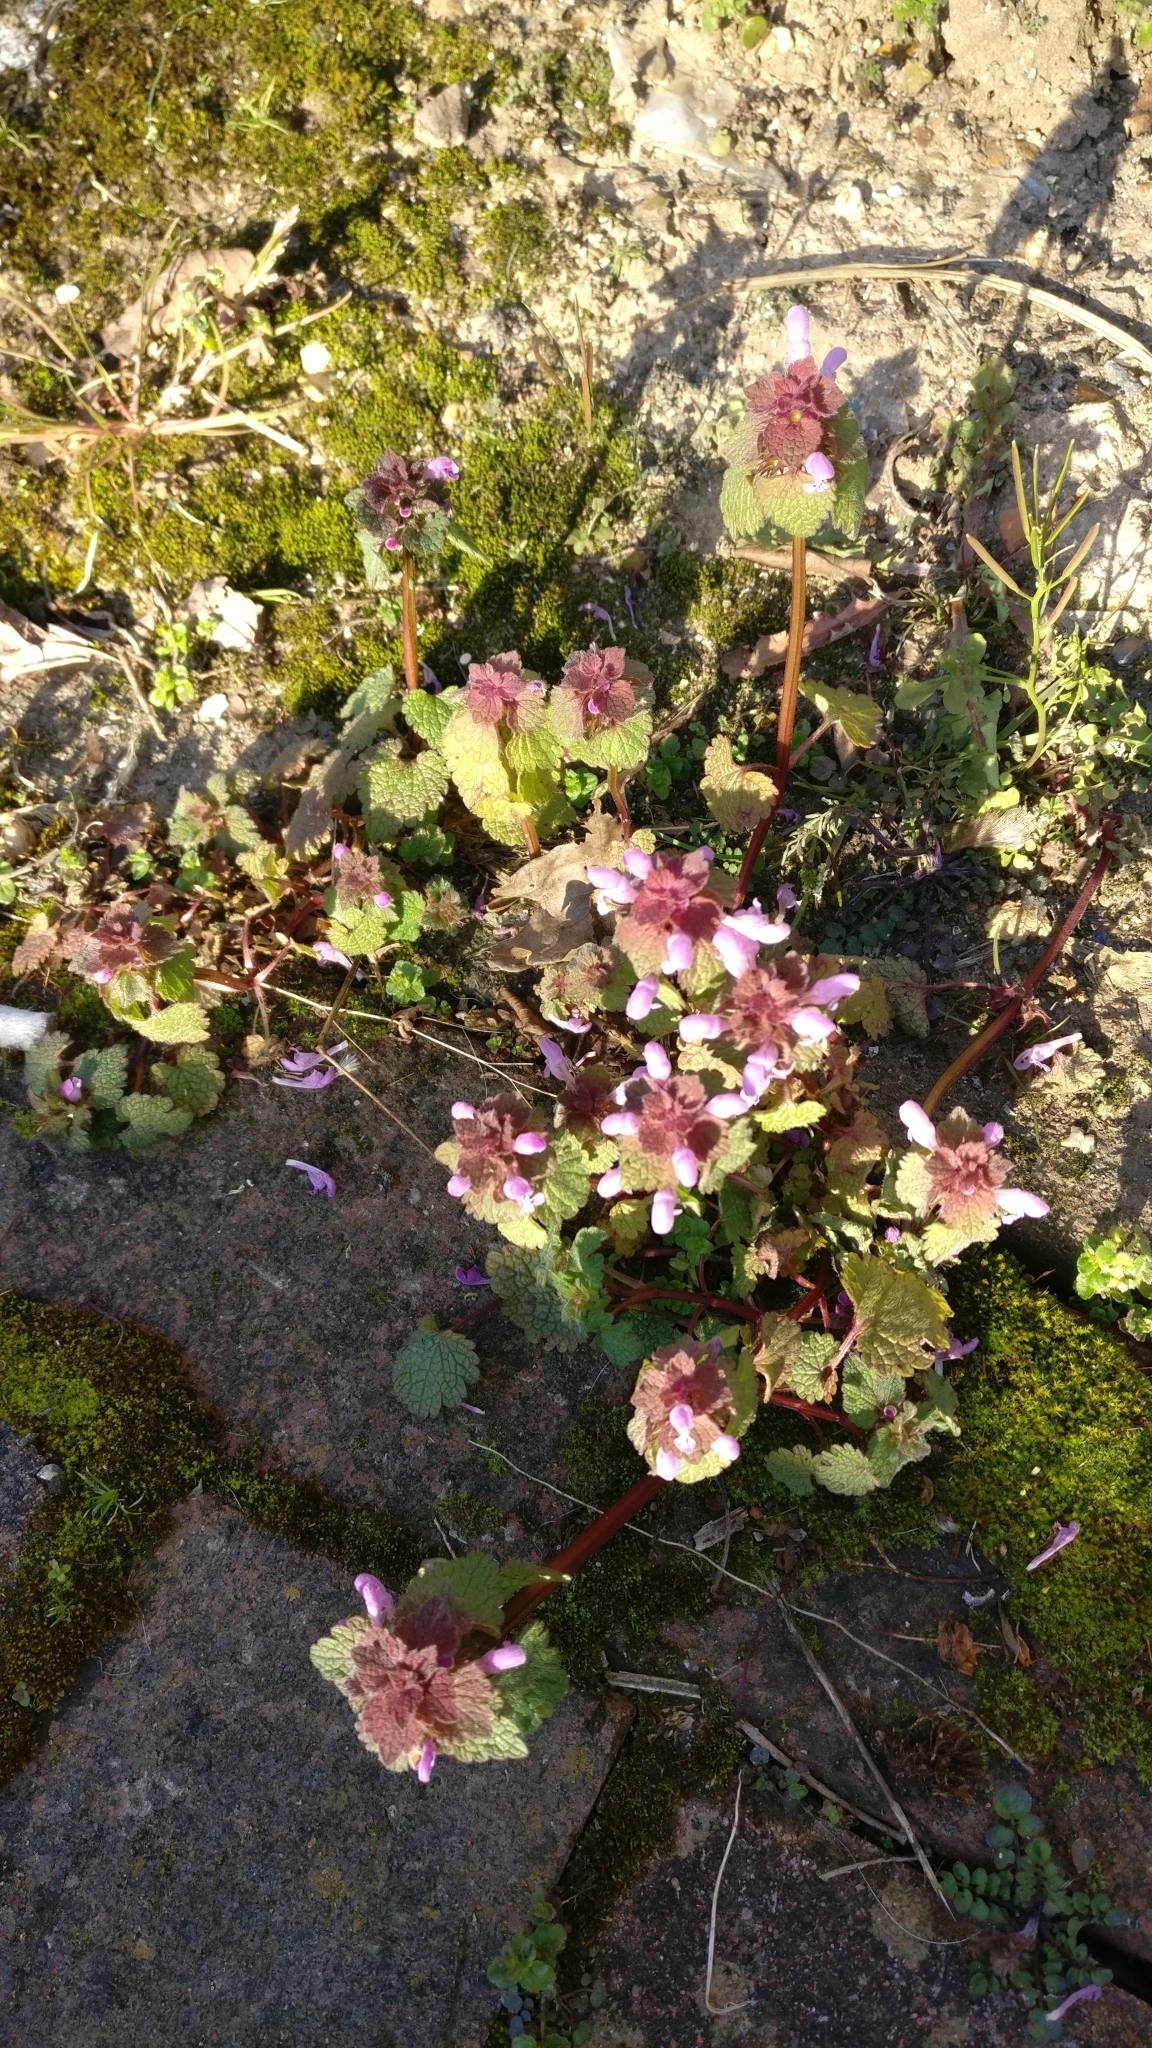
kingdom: Plantae
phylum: Tracheophyta
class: Magnoliopsida
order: Lamiales
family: Lamiaceae
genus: Lamium
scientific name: Lamium purpureum
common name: Red dead-nettle
